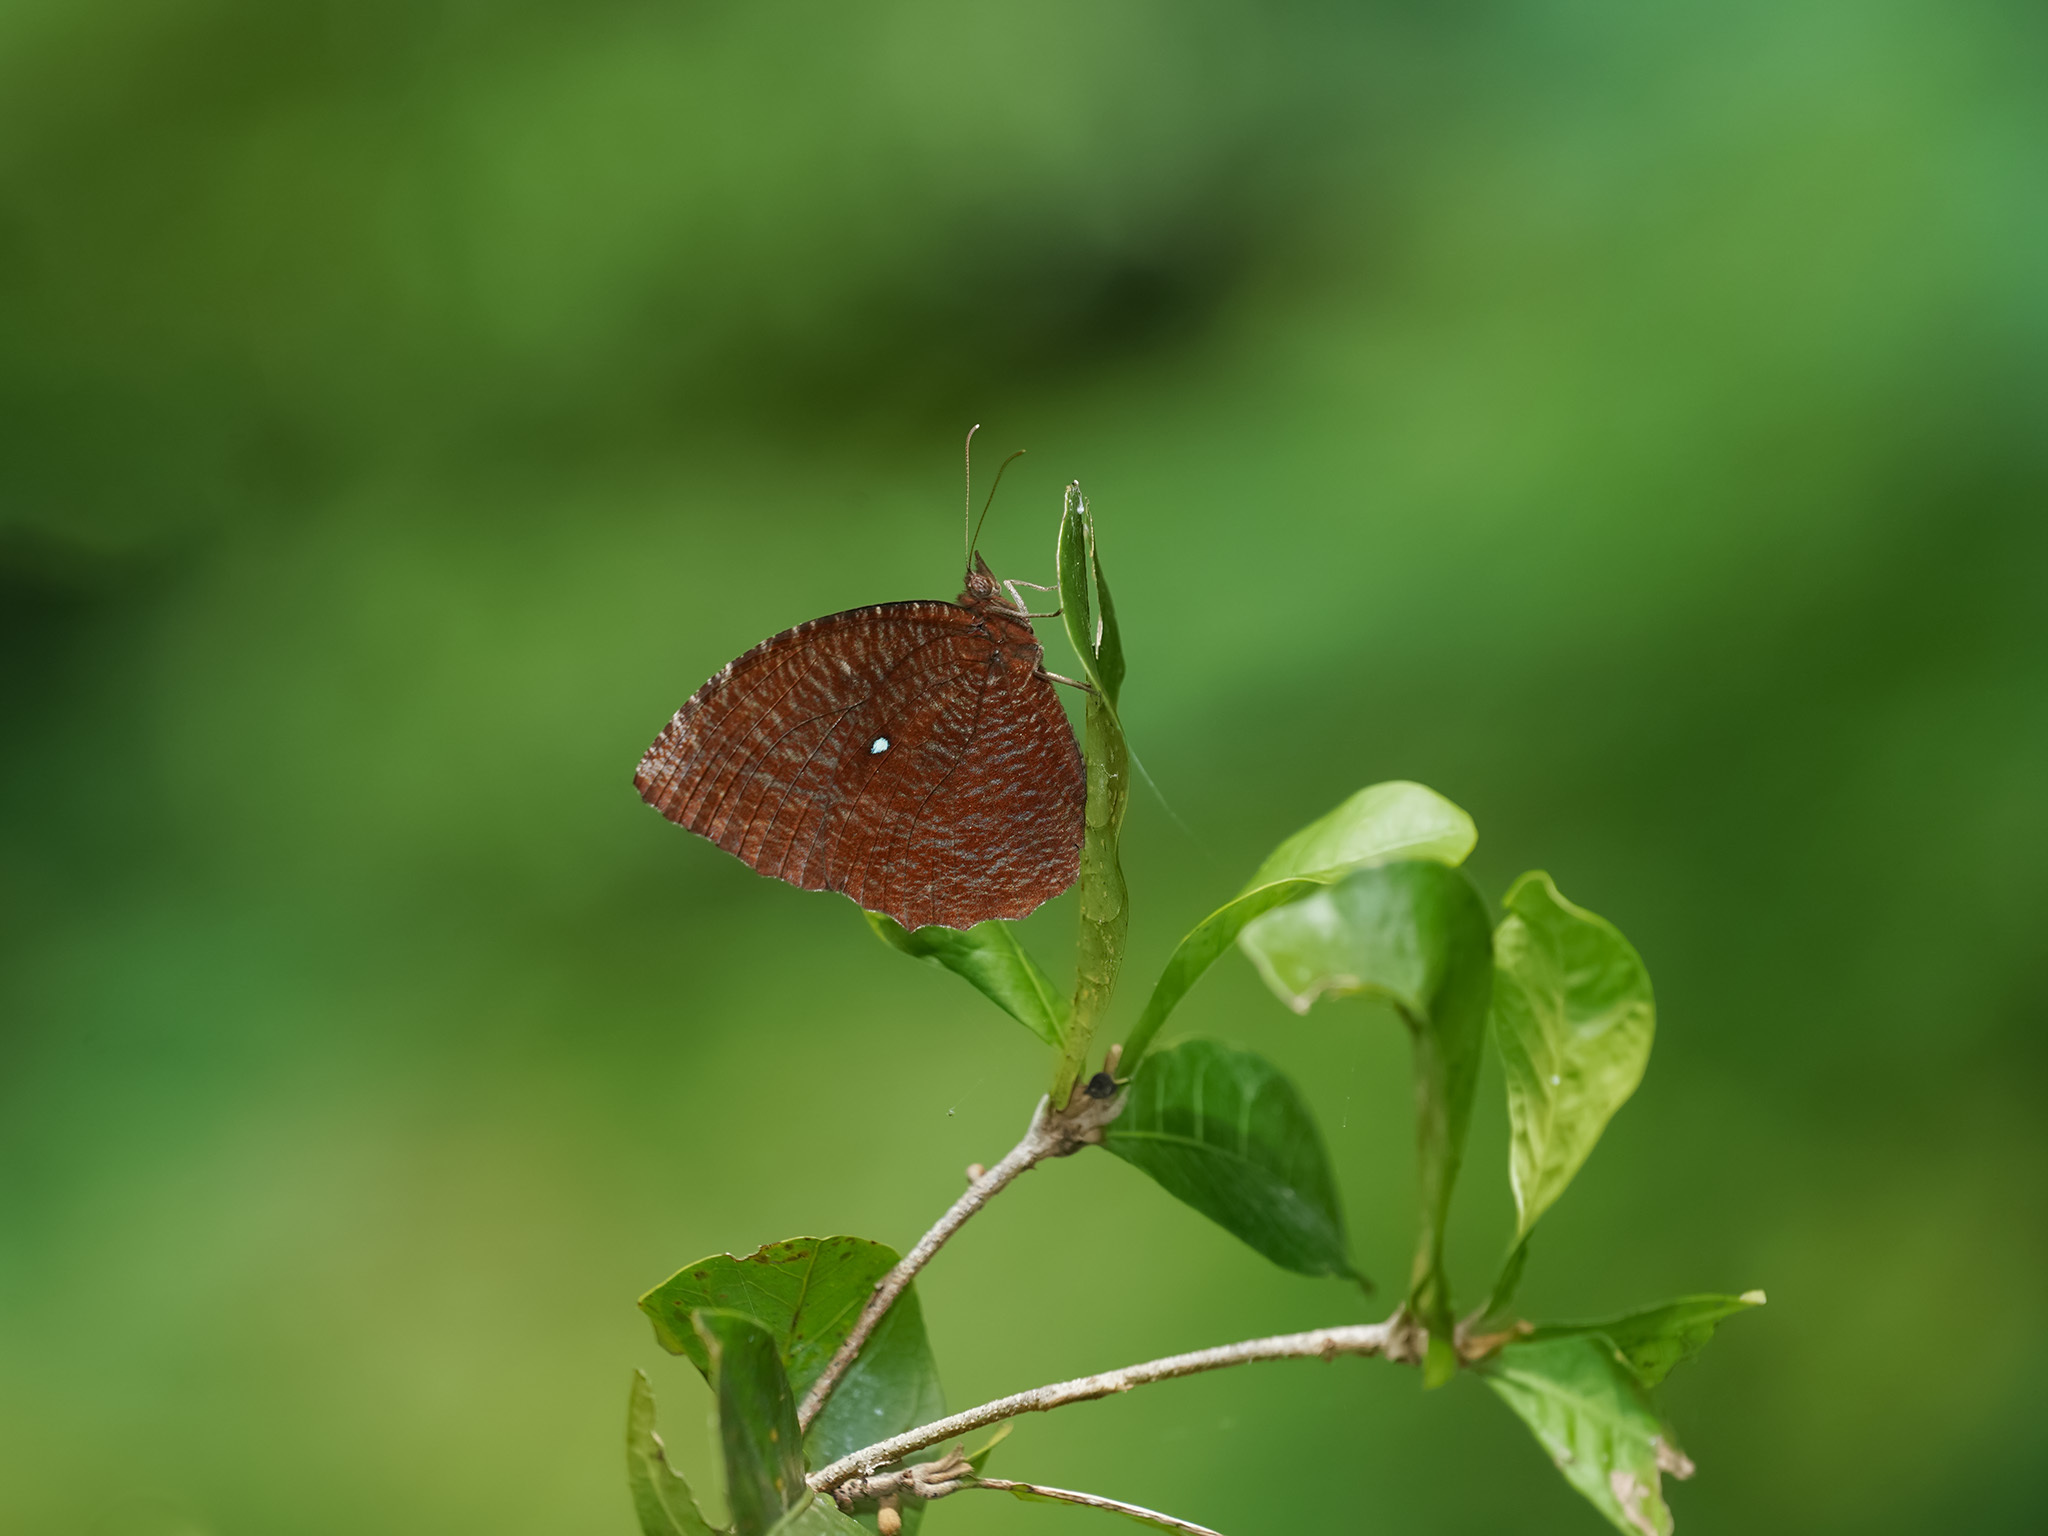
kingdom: Animalia
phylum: Arthropoda
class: Insecta
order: Lepidoptera
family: Nymphalidae
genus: Elymnias
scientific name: Elymnias hypermnestra
